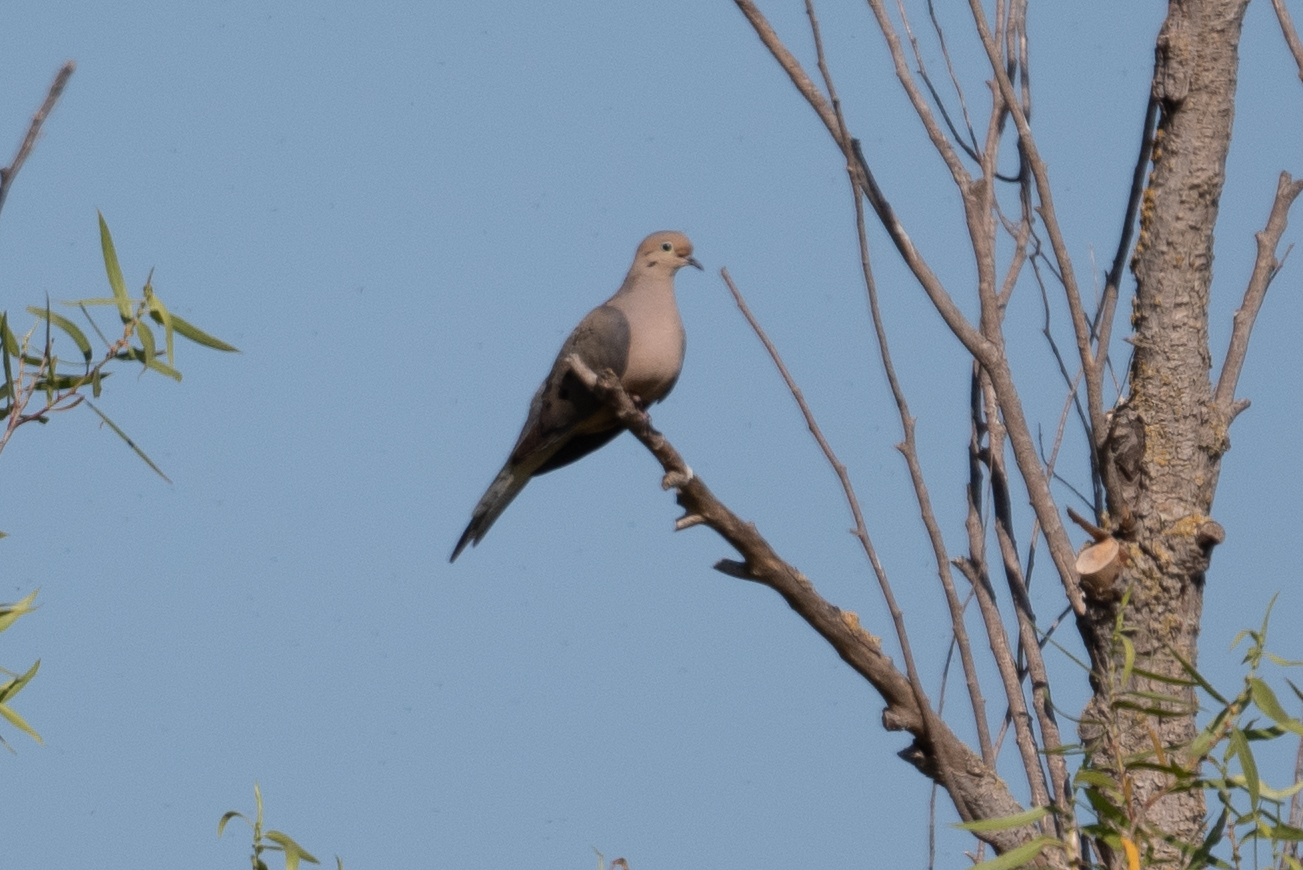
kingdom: Animalia
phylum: Chordata
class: Aves
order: Columbiformes
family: Columbidae
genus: Zenaida
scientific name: Zenaida macroura
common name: Mourning dove
